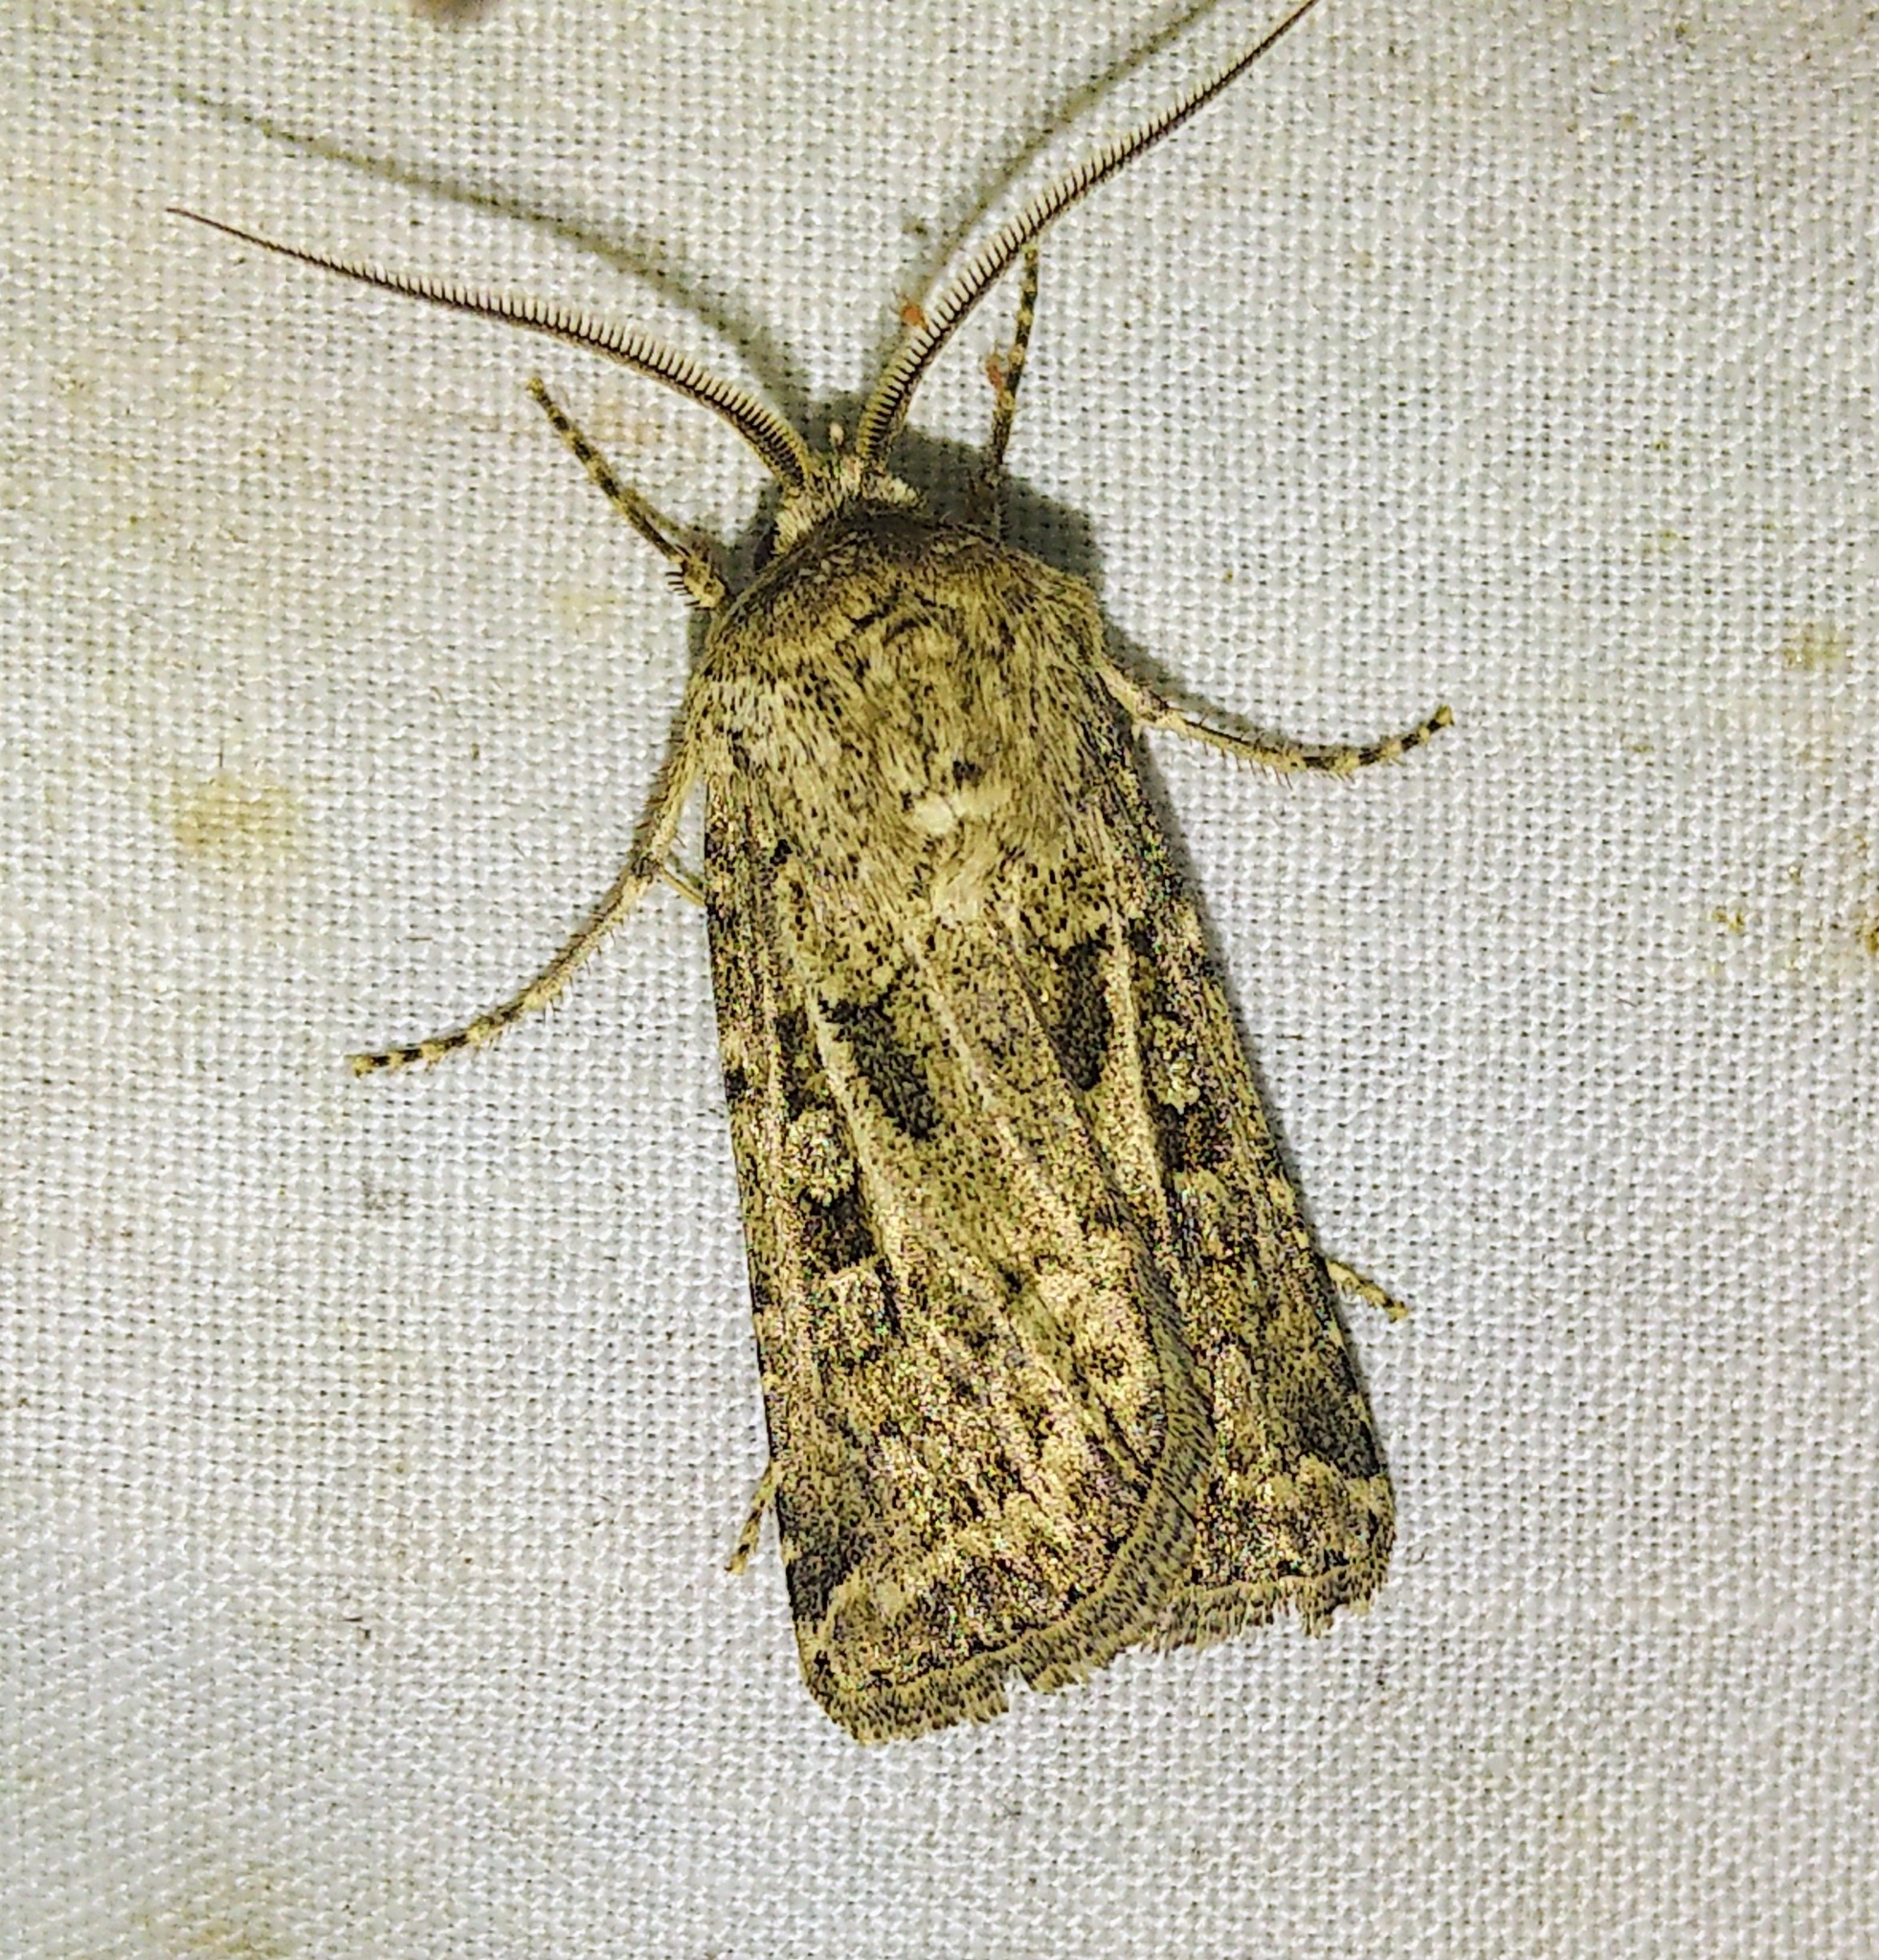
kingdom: Animalia
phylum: Arthropoda
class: Insecta
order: Lepidoptera
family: Noctuidae
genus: Agrotis
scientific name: Agrotis orthogonia
